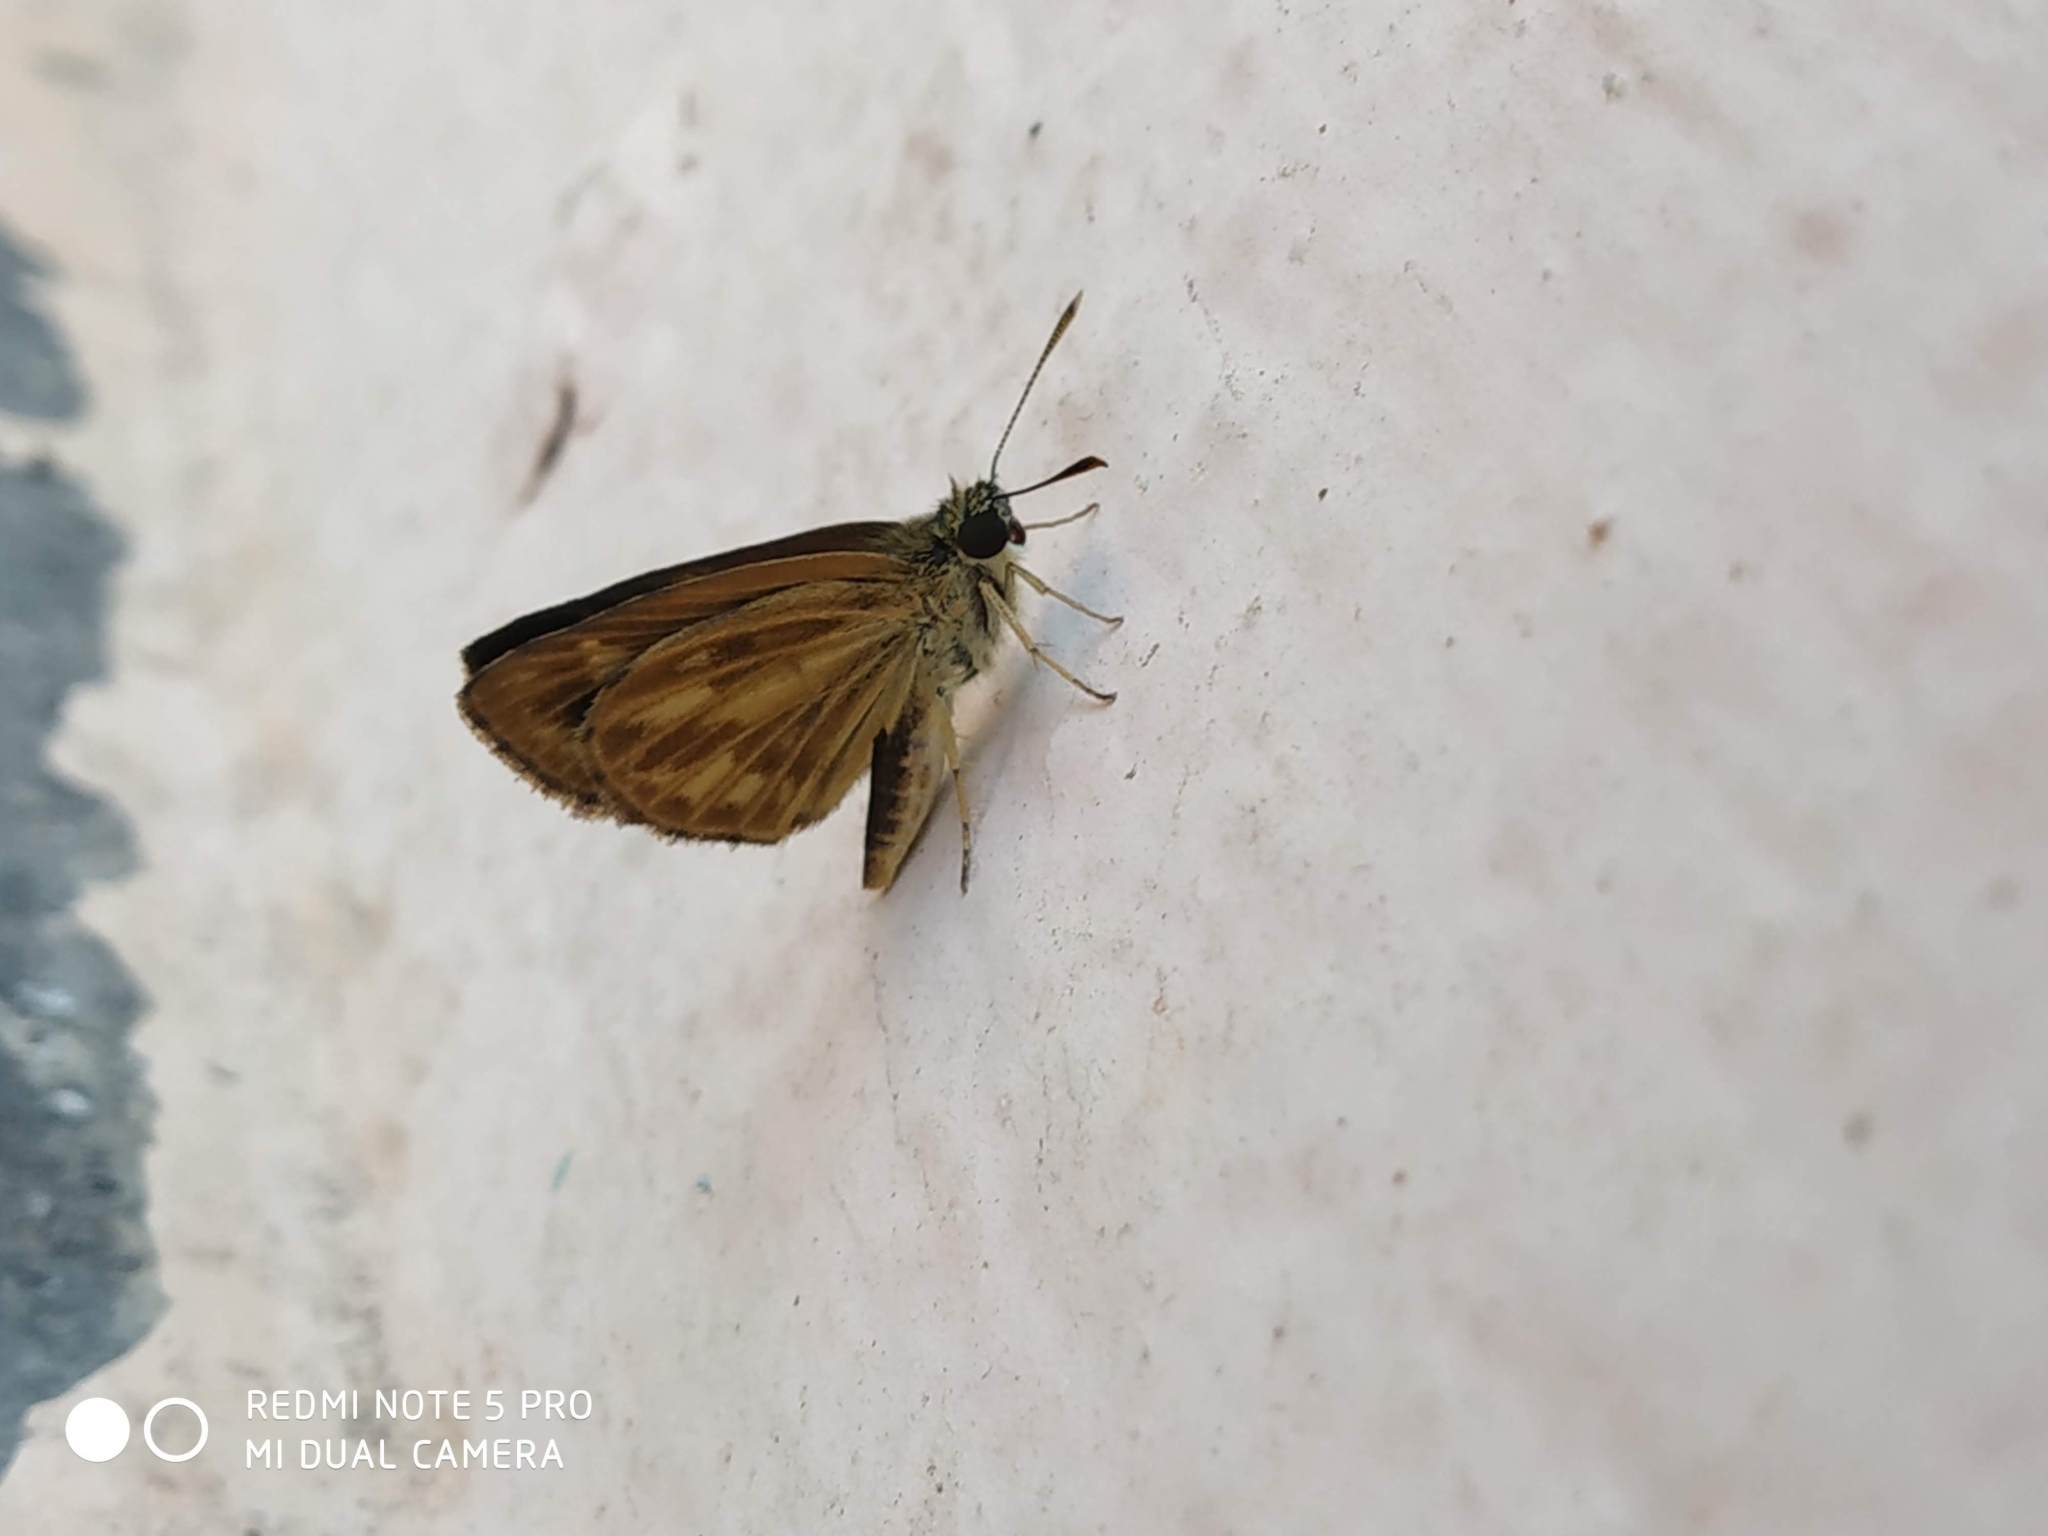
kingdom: Animalia
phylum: Arthropoda
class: Insecta
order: Lepidoptera
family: Hesperiidae
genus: Baracus
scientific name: Baracus vittatus
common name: Hedge-hopper
